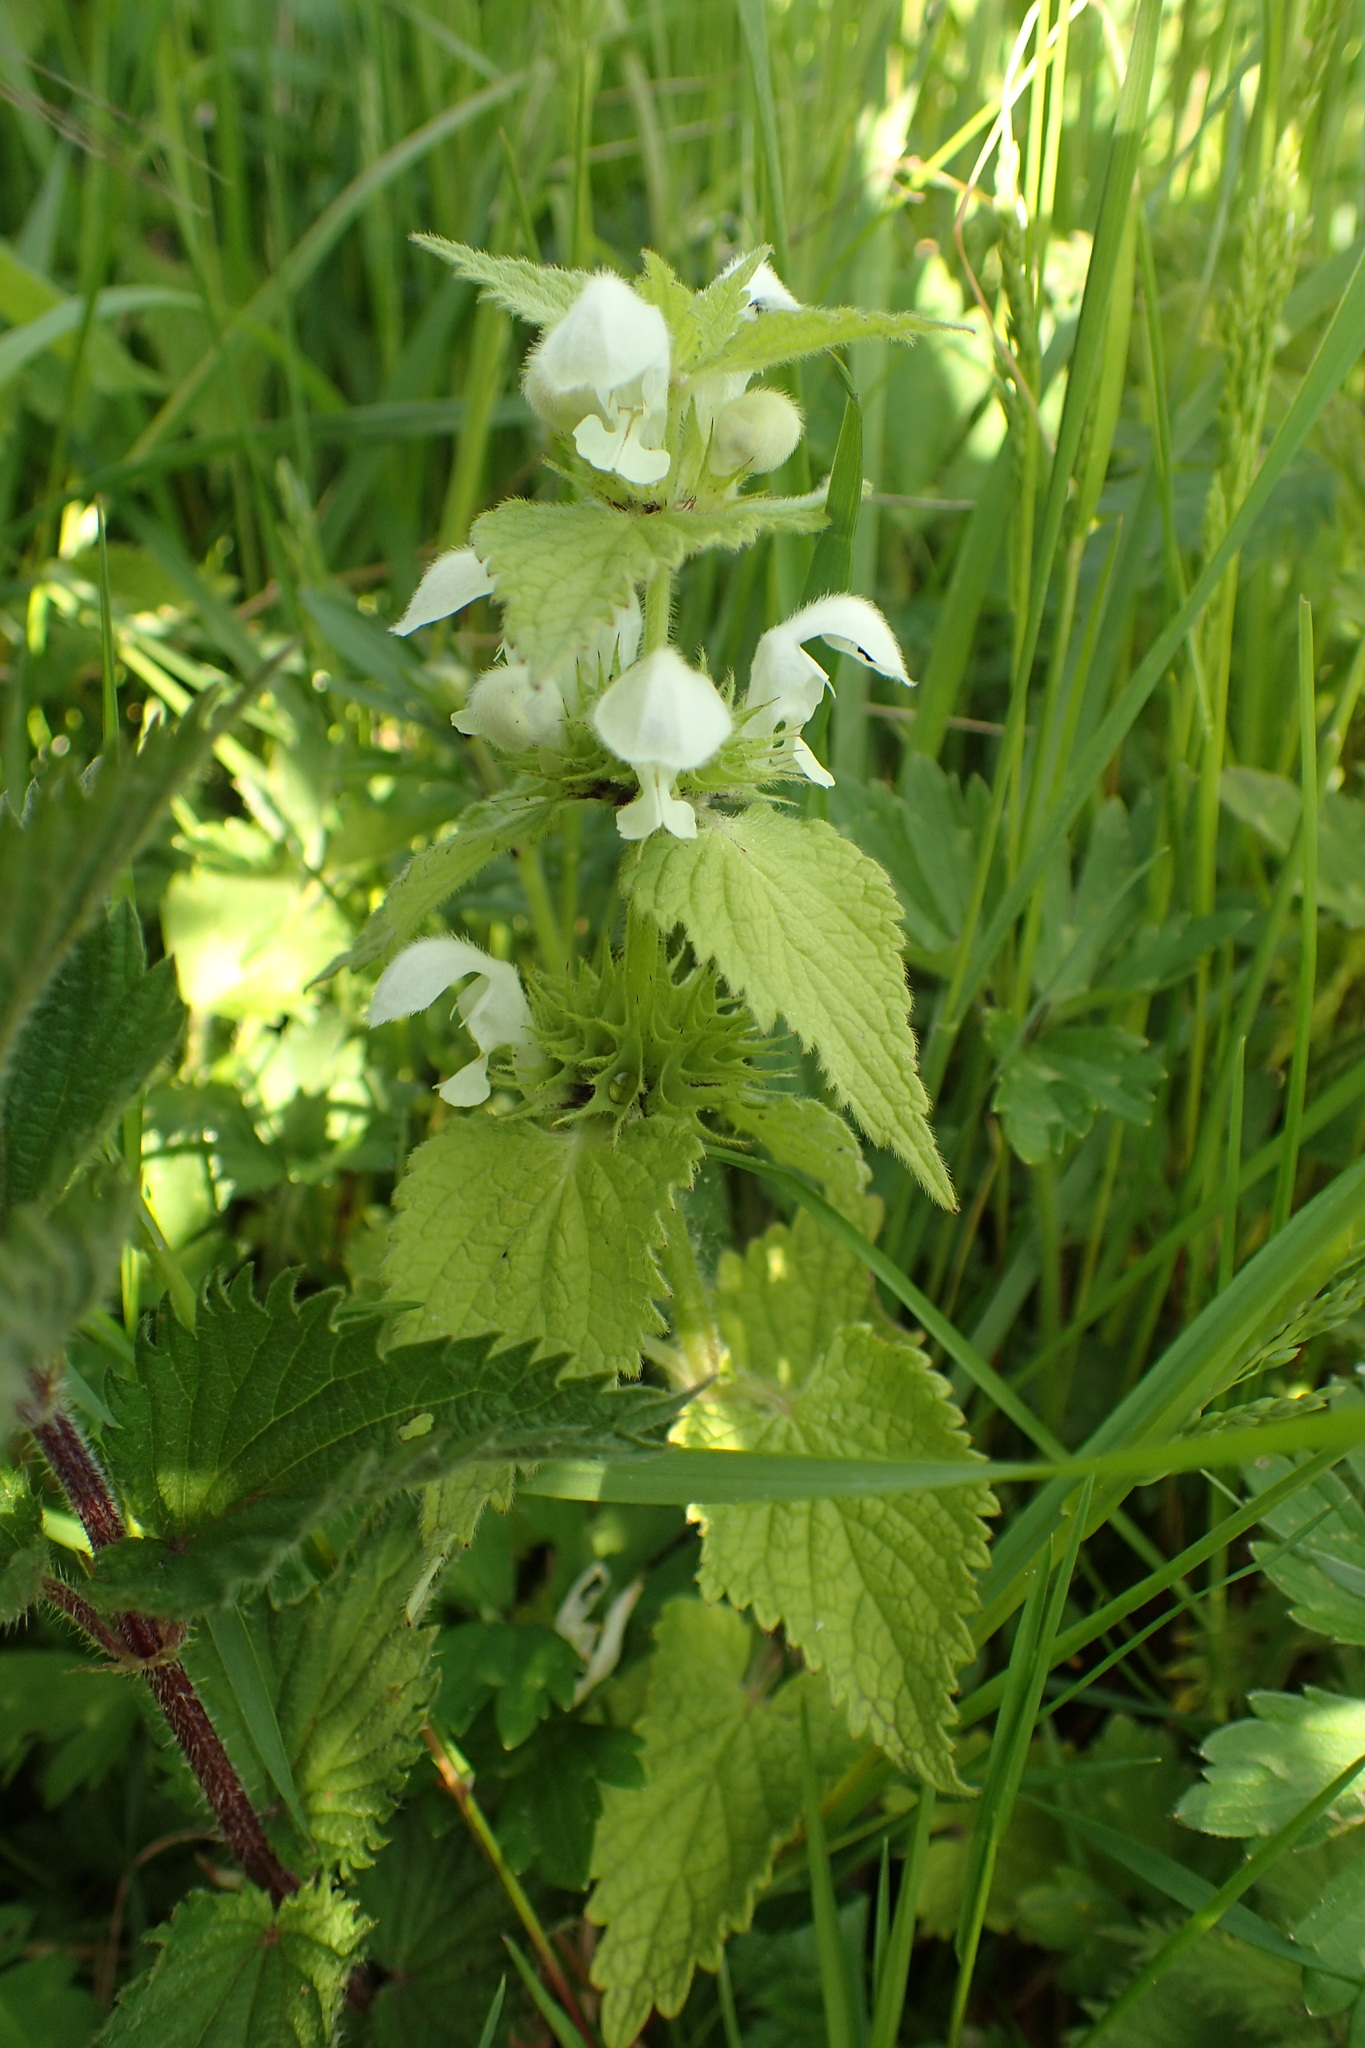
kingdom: Plantae
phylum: Tracheophyta
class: Magnoliopsida
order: Lamiales
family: Lamiaceae
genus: Lamium
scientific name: Lamium album
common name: White dead-nettle
